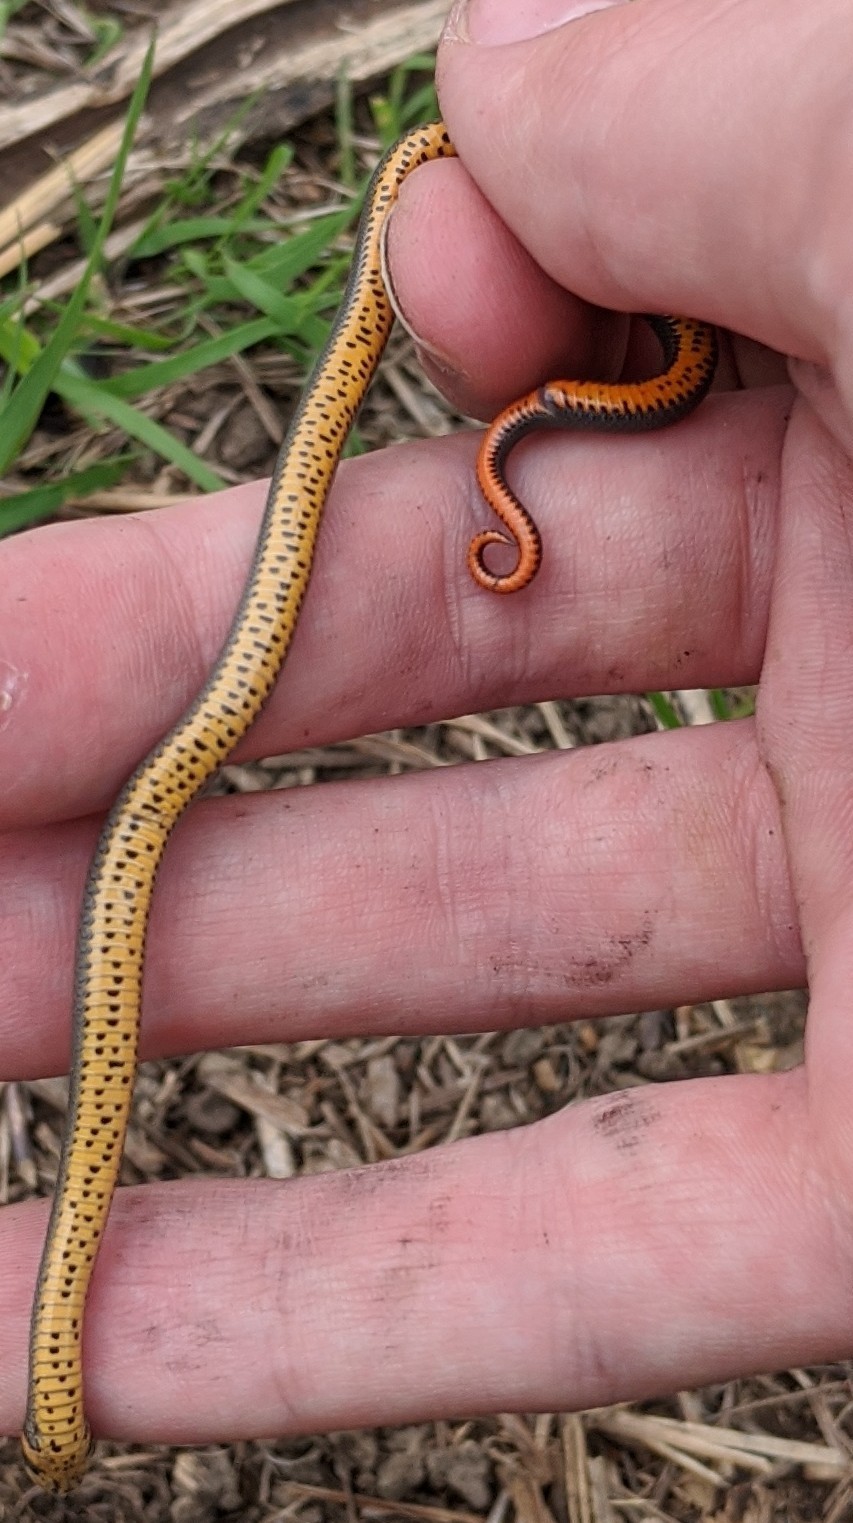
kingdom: Animalia
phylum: Chordata
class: Squamata
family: Colubridae
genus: Diadophis
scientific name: Diadophis punctatus
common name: Ringneck snake
